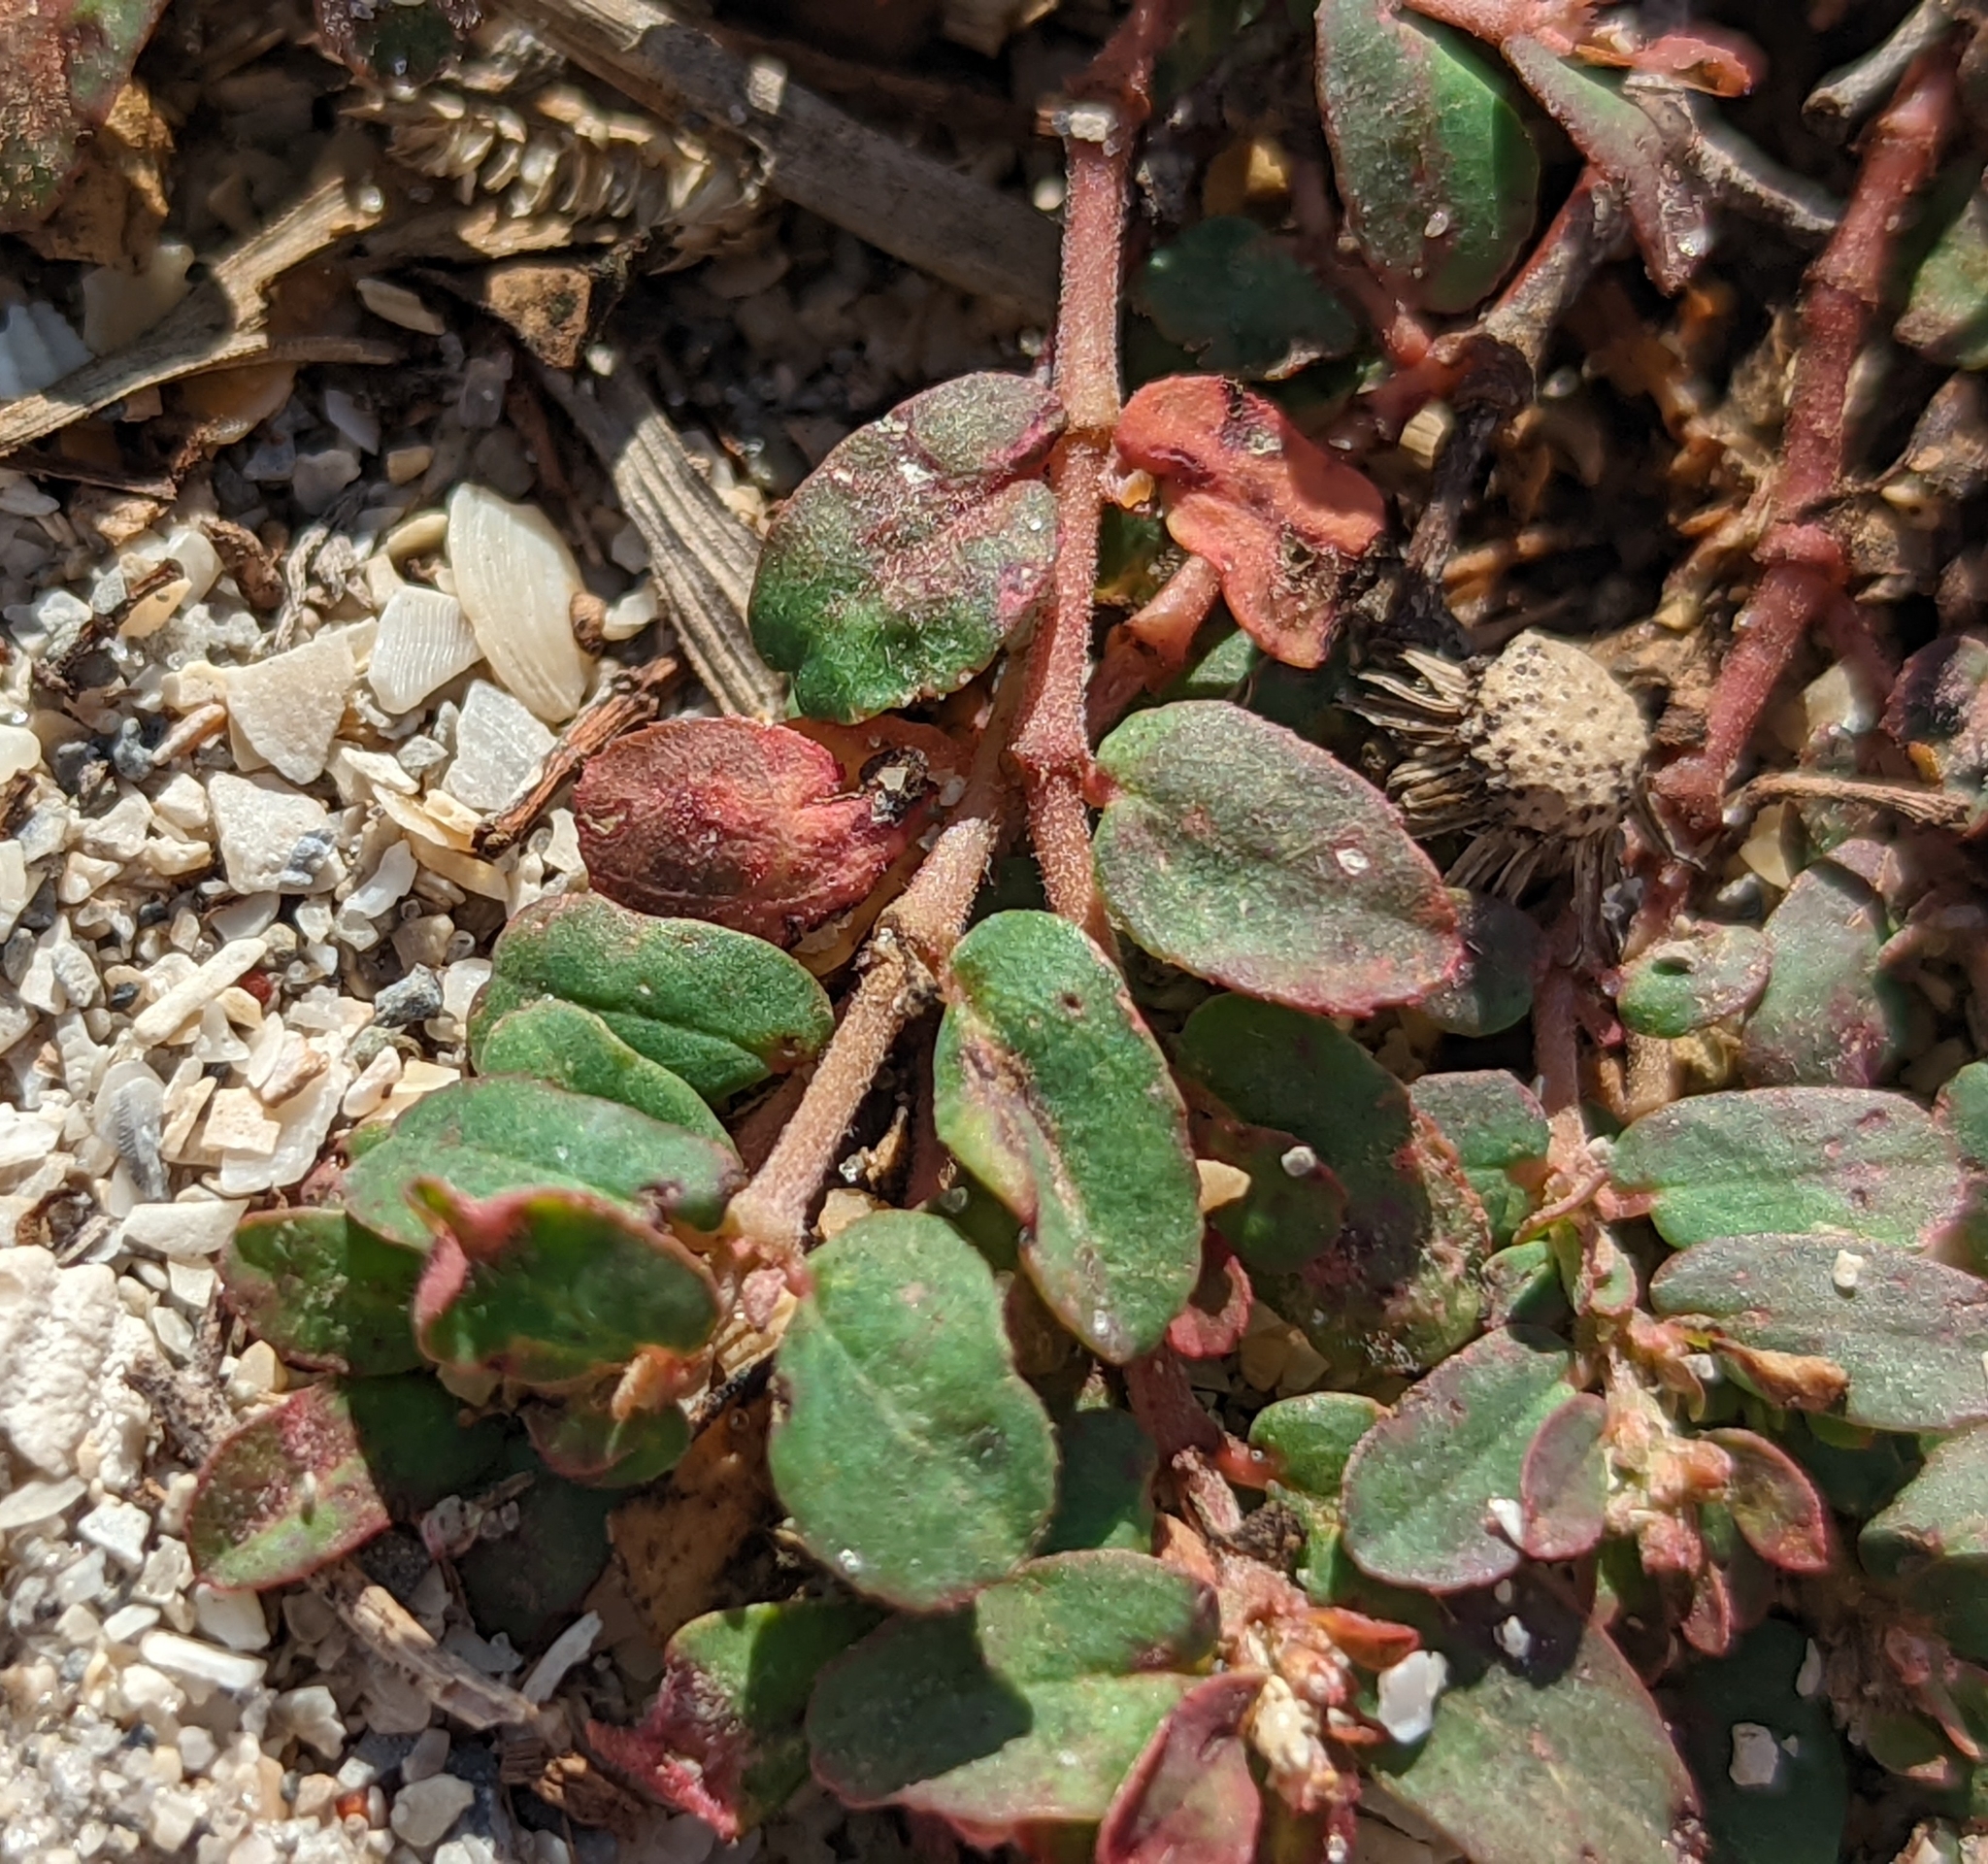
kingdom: Plantae
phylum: Tracheophyta
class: Magnoliopsida
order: Malpighiales
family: Euphorbiaceae
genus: Euphorbia
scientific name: Euphorbia maculata
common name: Spotted spurge
